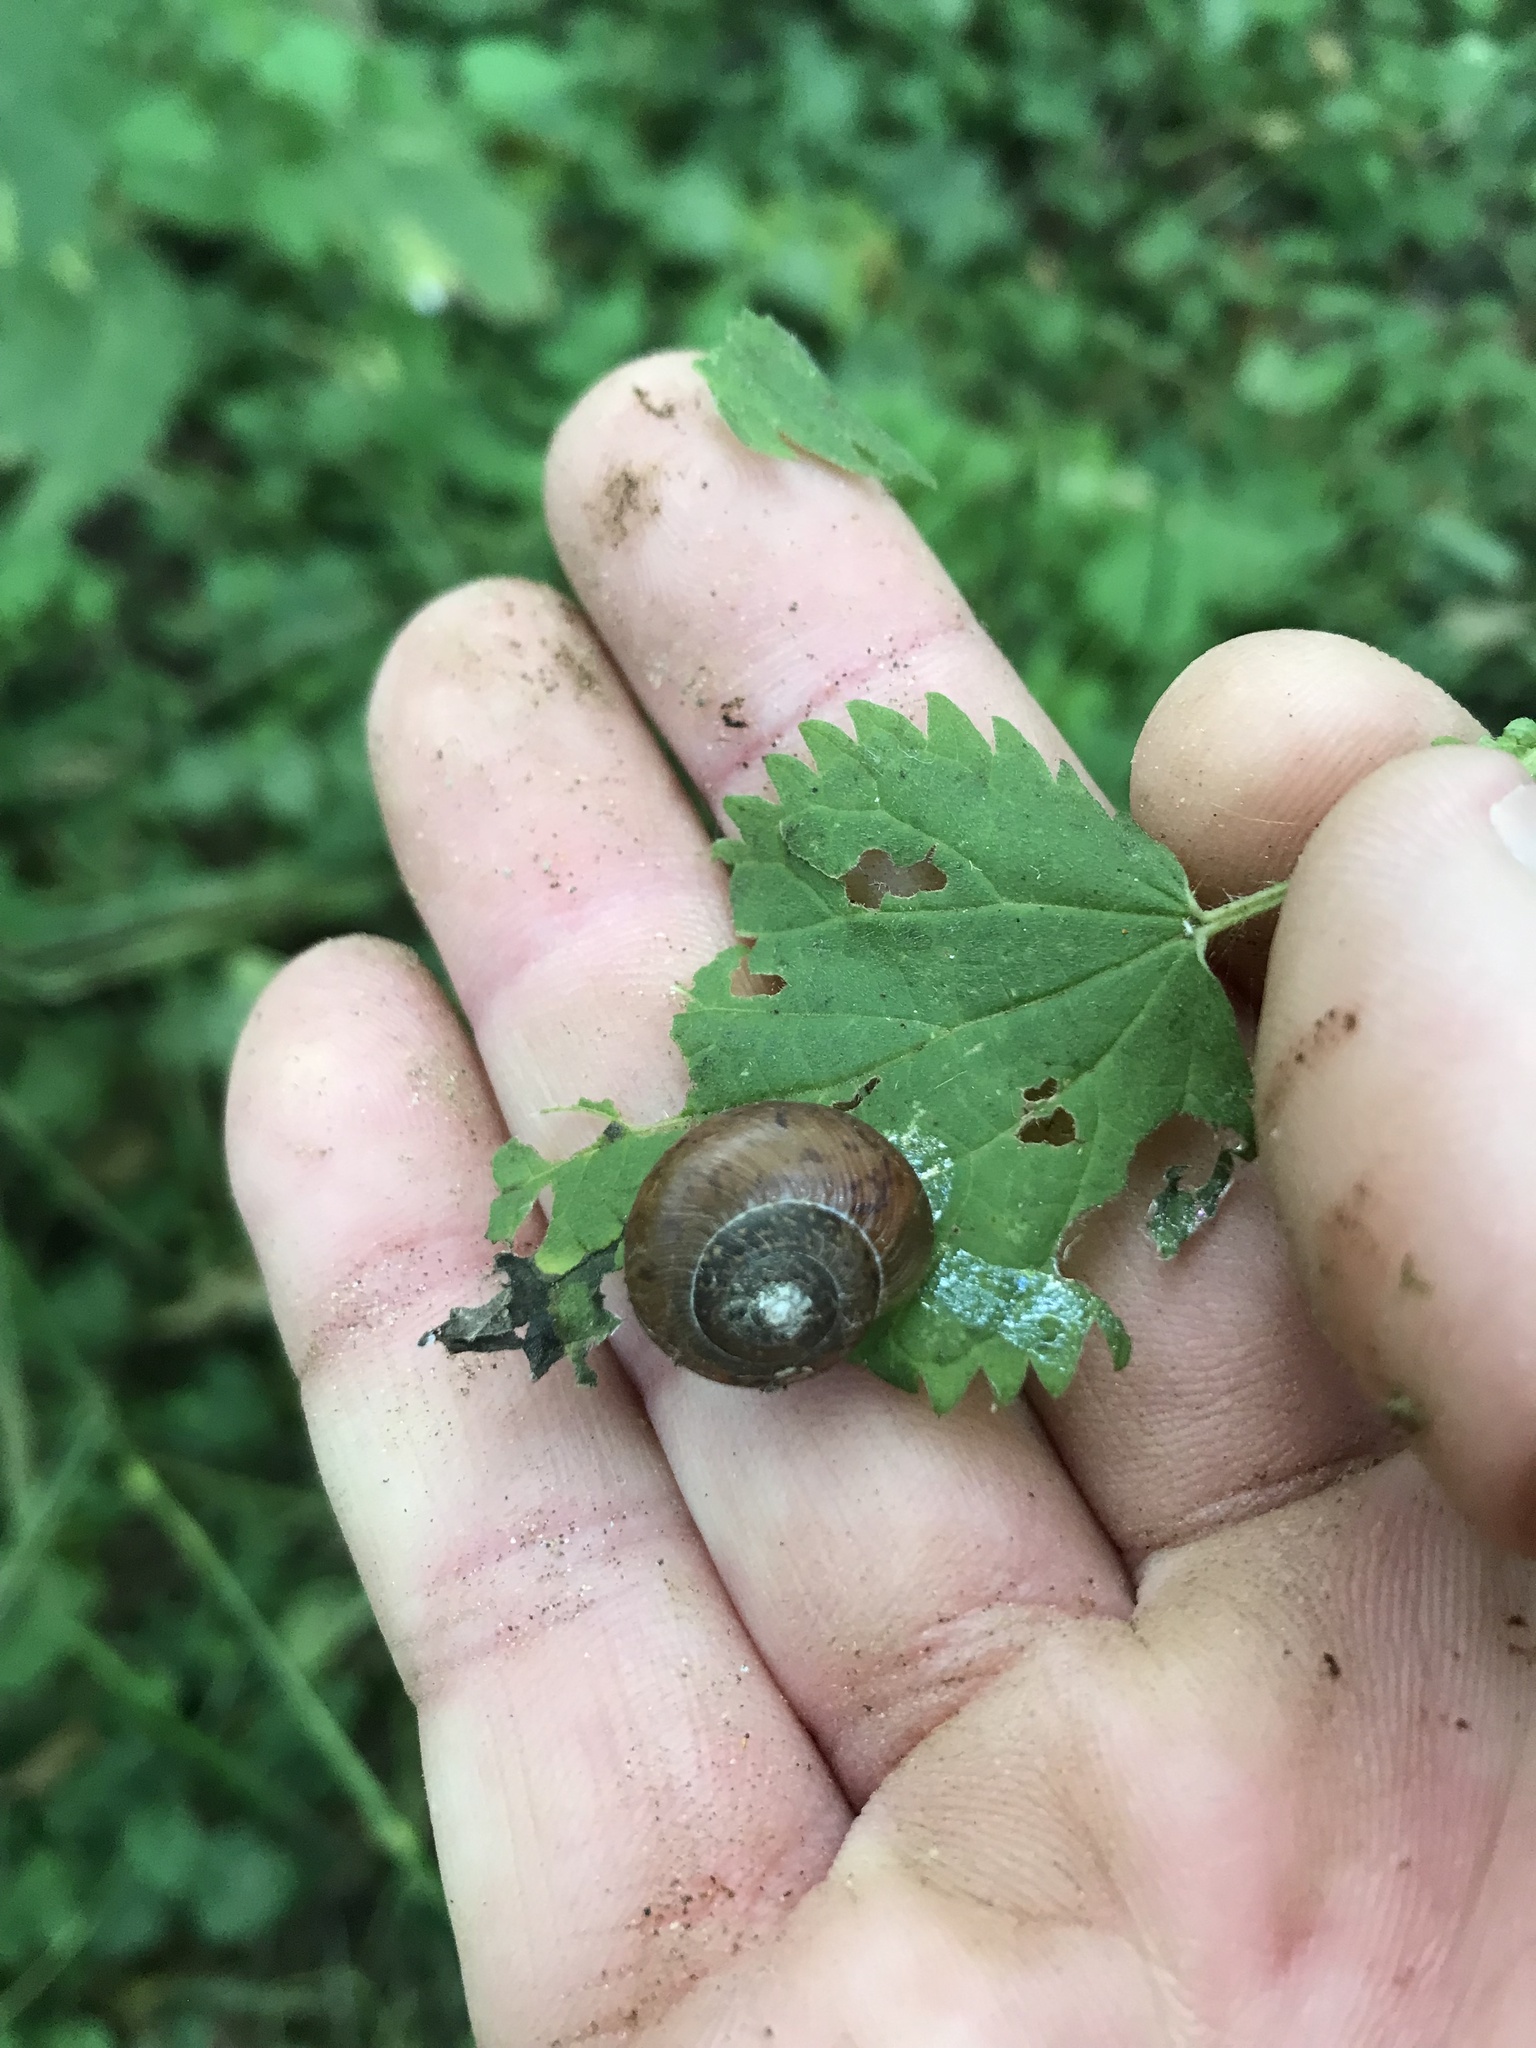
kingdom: Animalia
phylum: Mollusca
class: Gastropoda
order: Stylommatophora
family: Polygyridae
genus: Vespericola
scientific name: Vespericola columbianus
